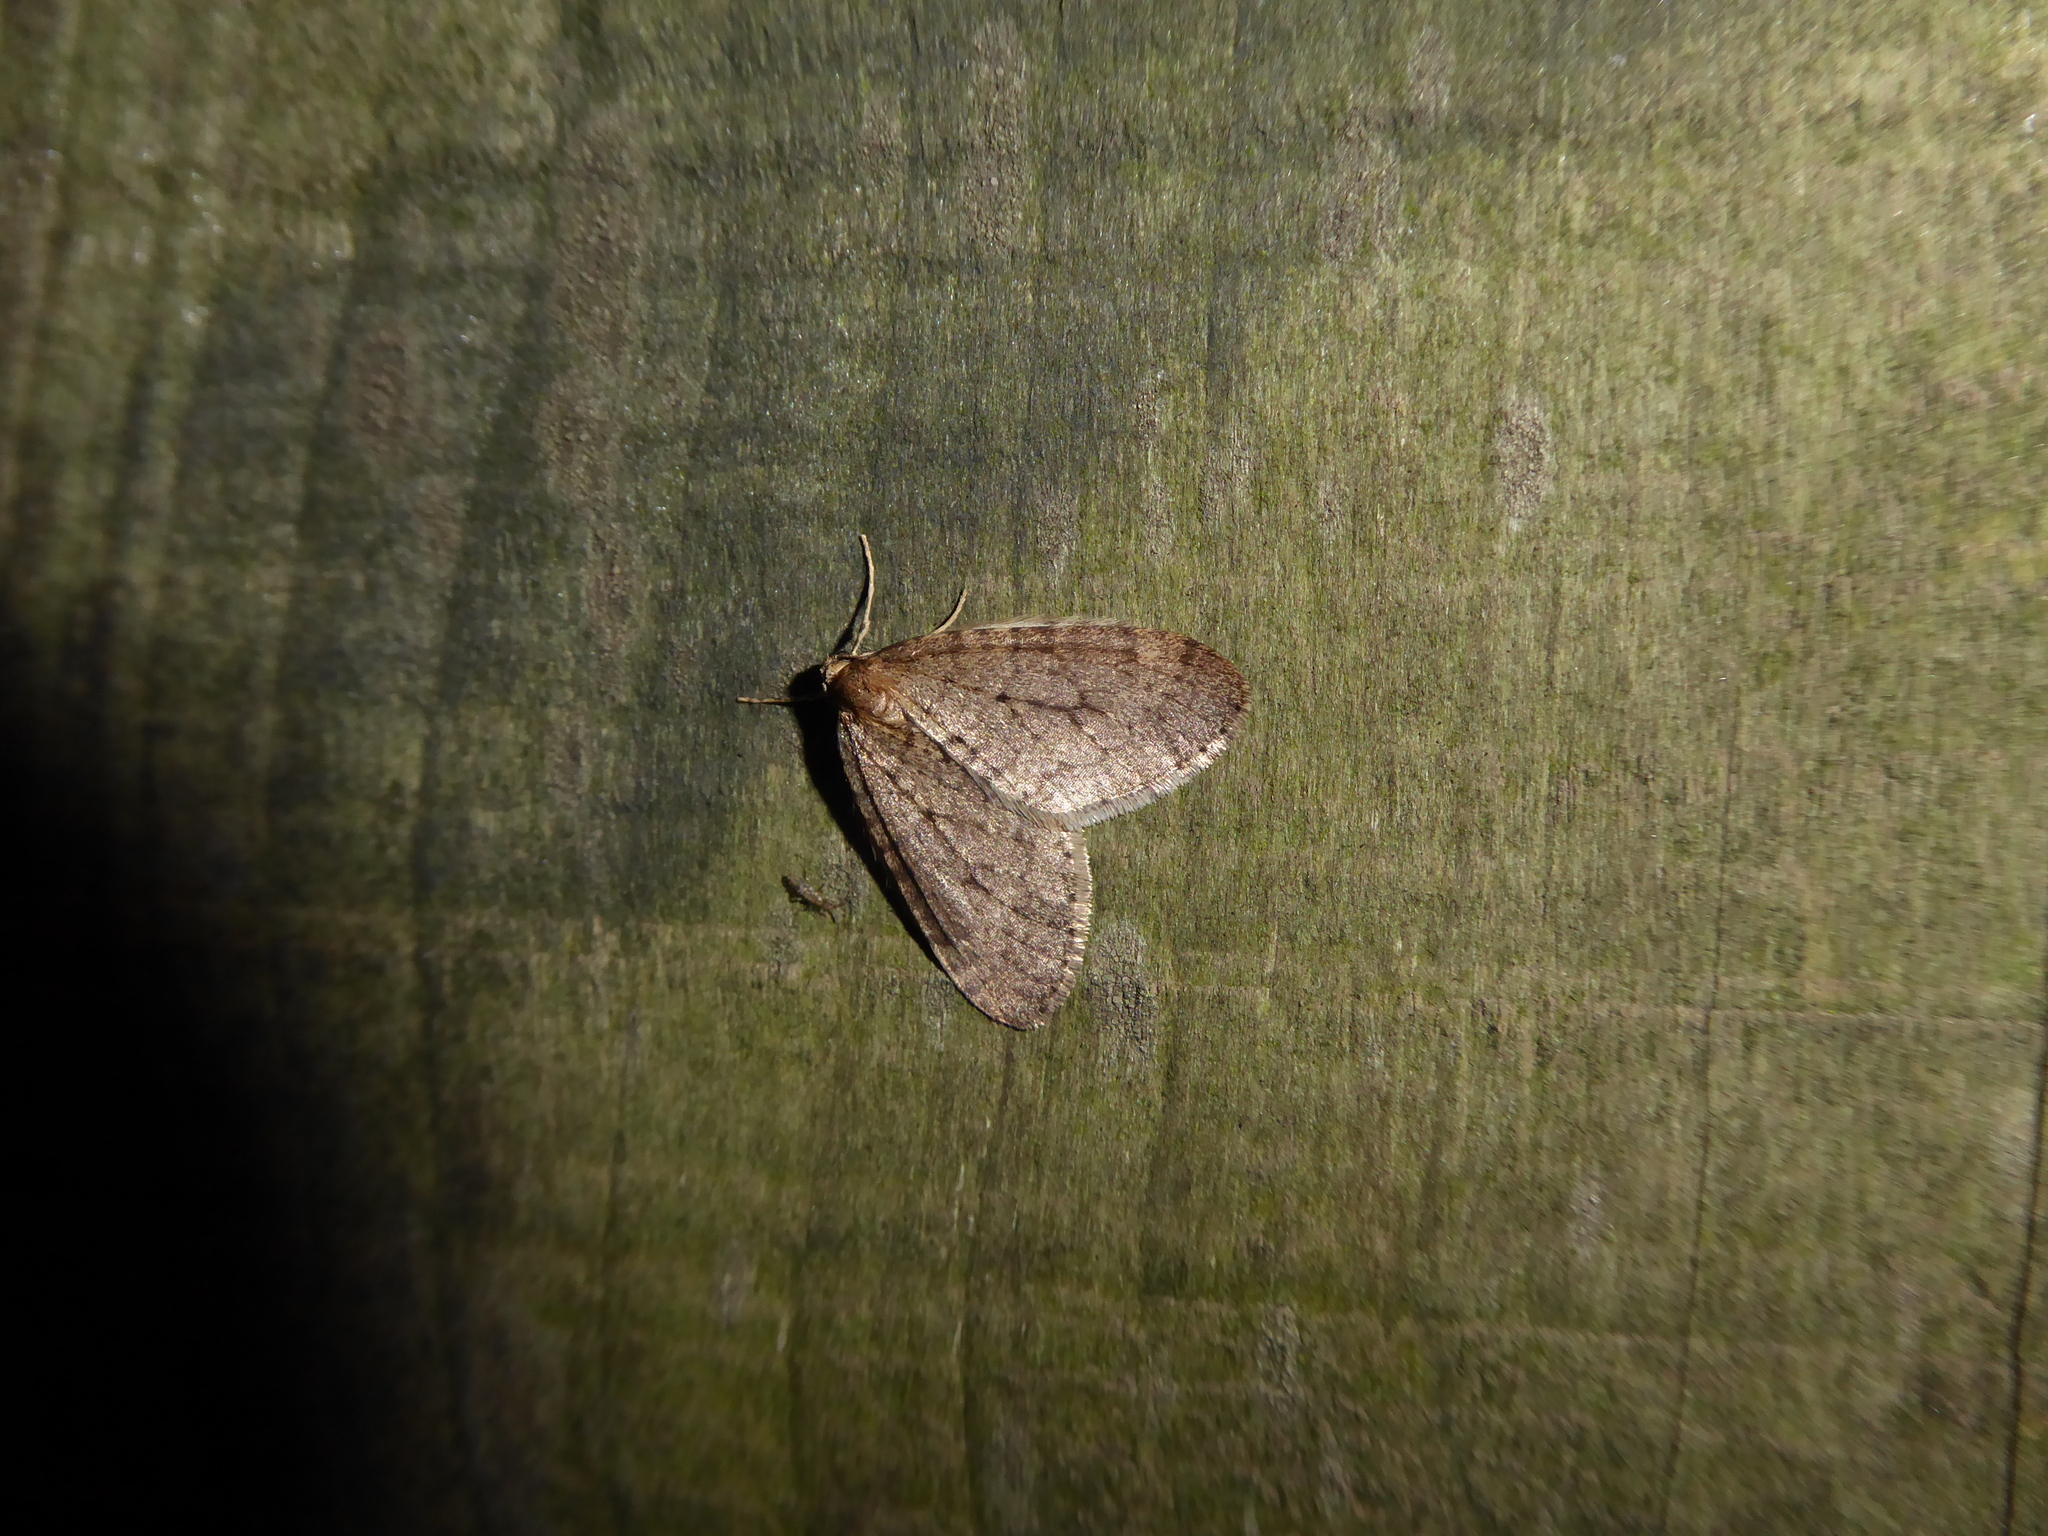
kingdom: Animalia
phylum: Arthropoda
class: Insecta
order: Lepidoptera
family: Geometridae
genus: Operophtera
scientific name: Operophtera brumata
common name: Winter moth
